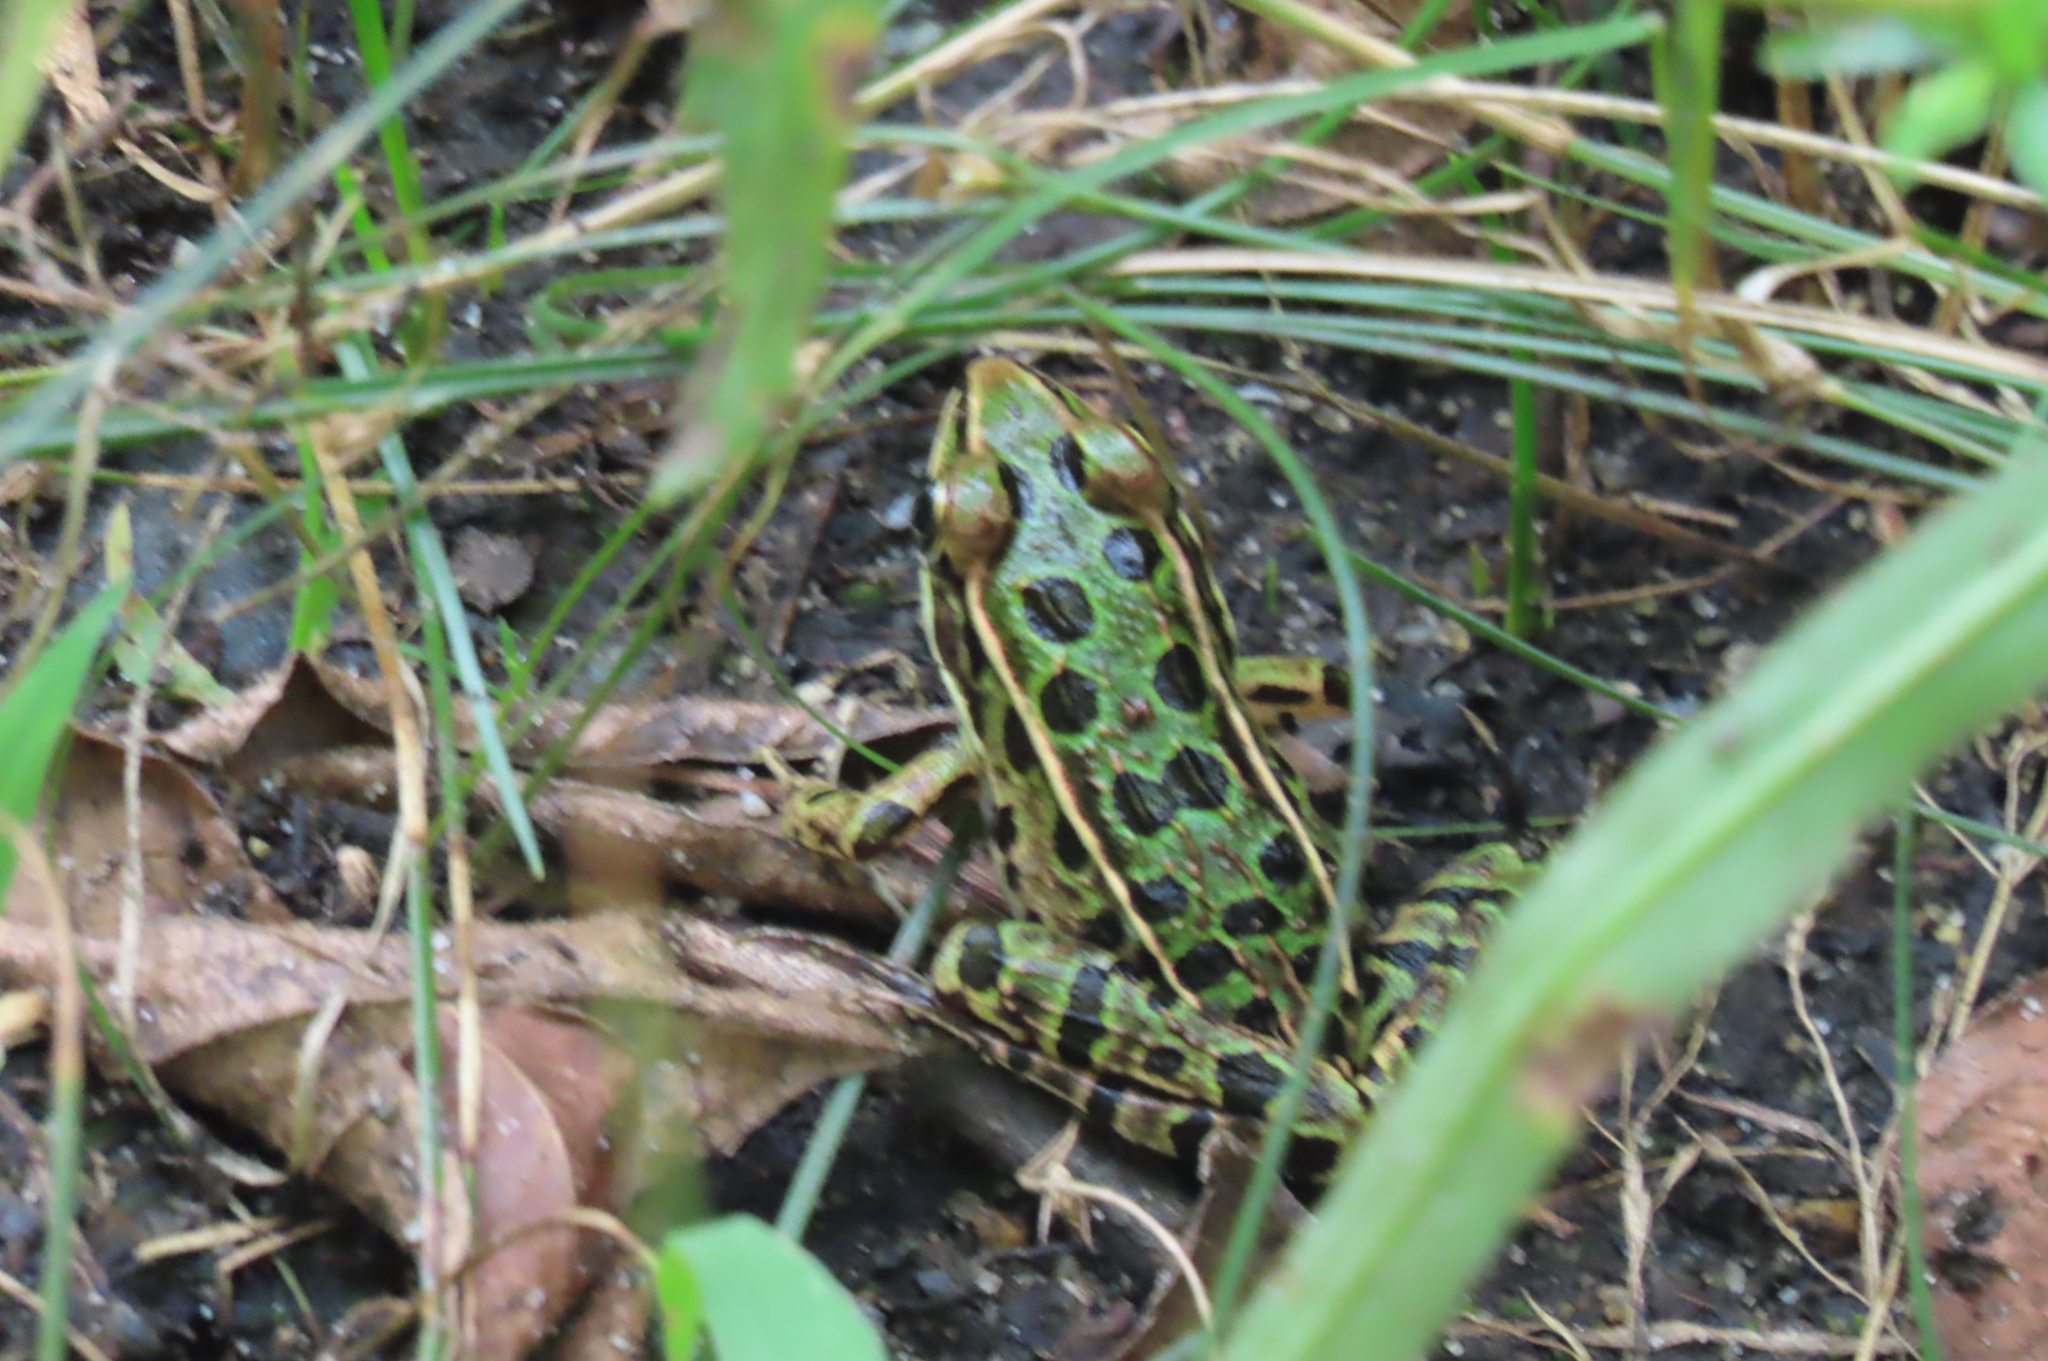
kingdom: Animalia
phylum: Chordata
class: Amphibia
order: Anura
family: Ranidae
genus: Lithobates
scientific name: Lithobates pipiens
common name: Northern leopard frog
